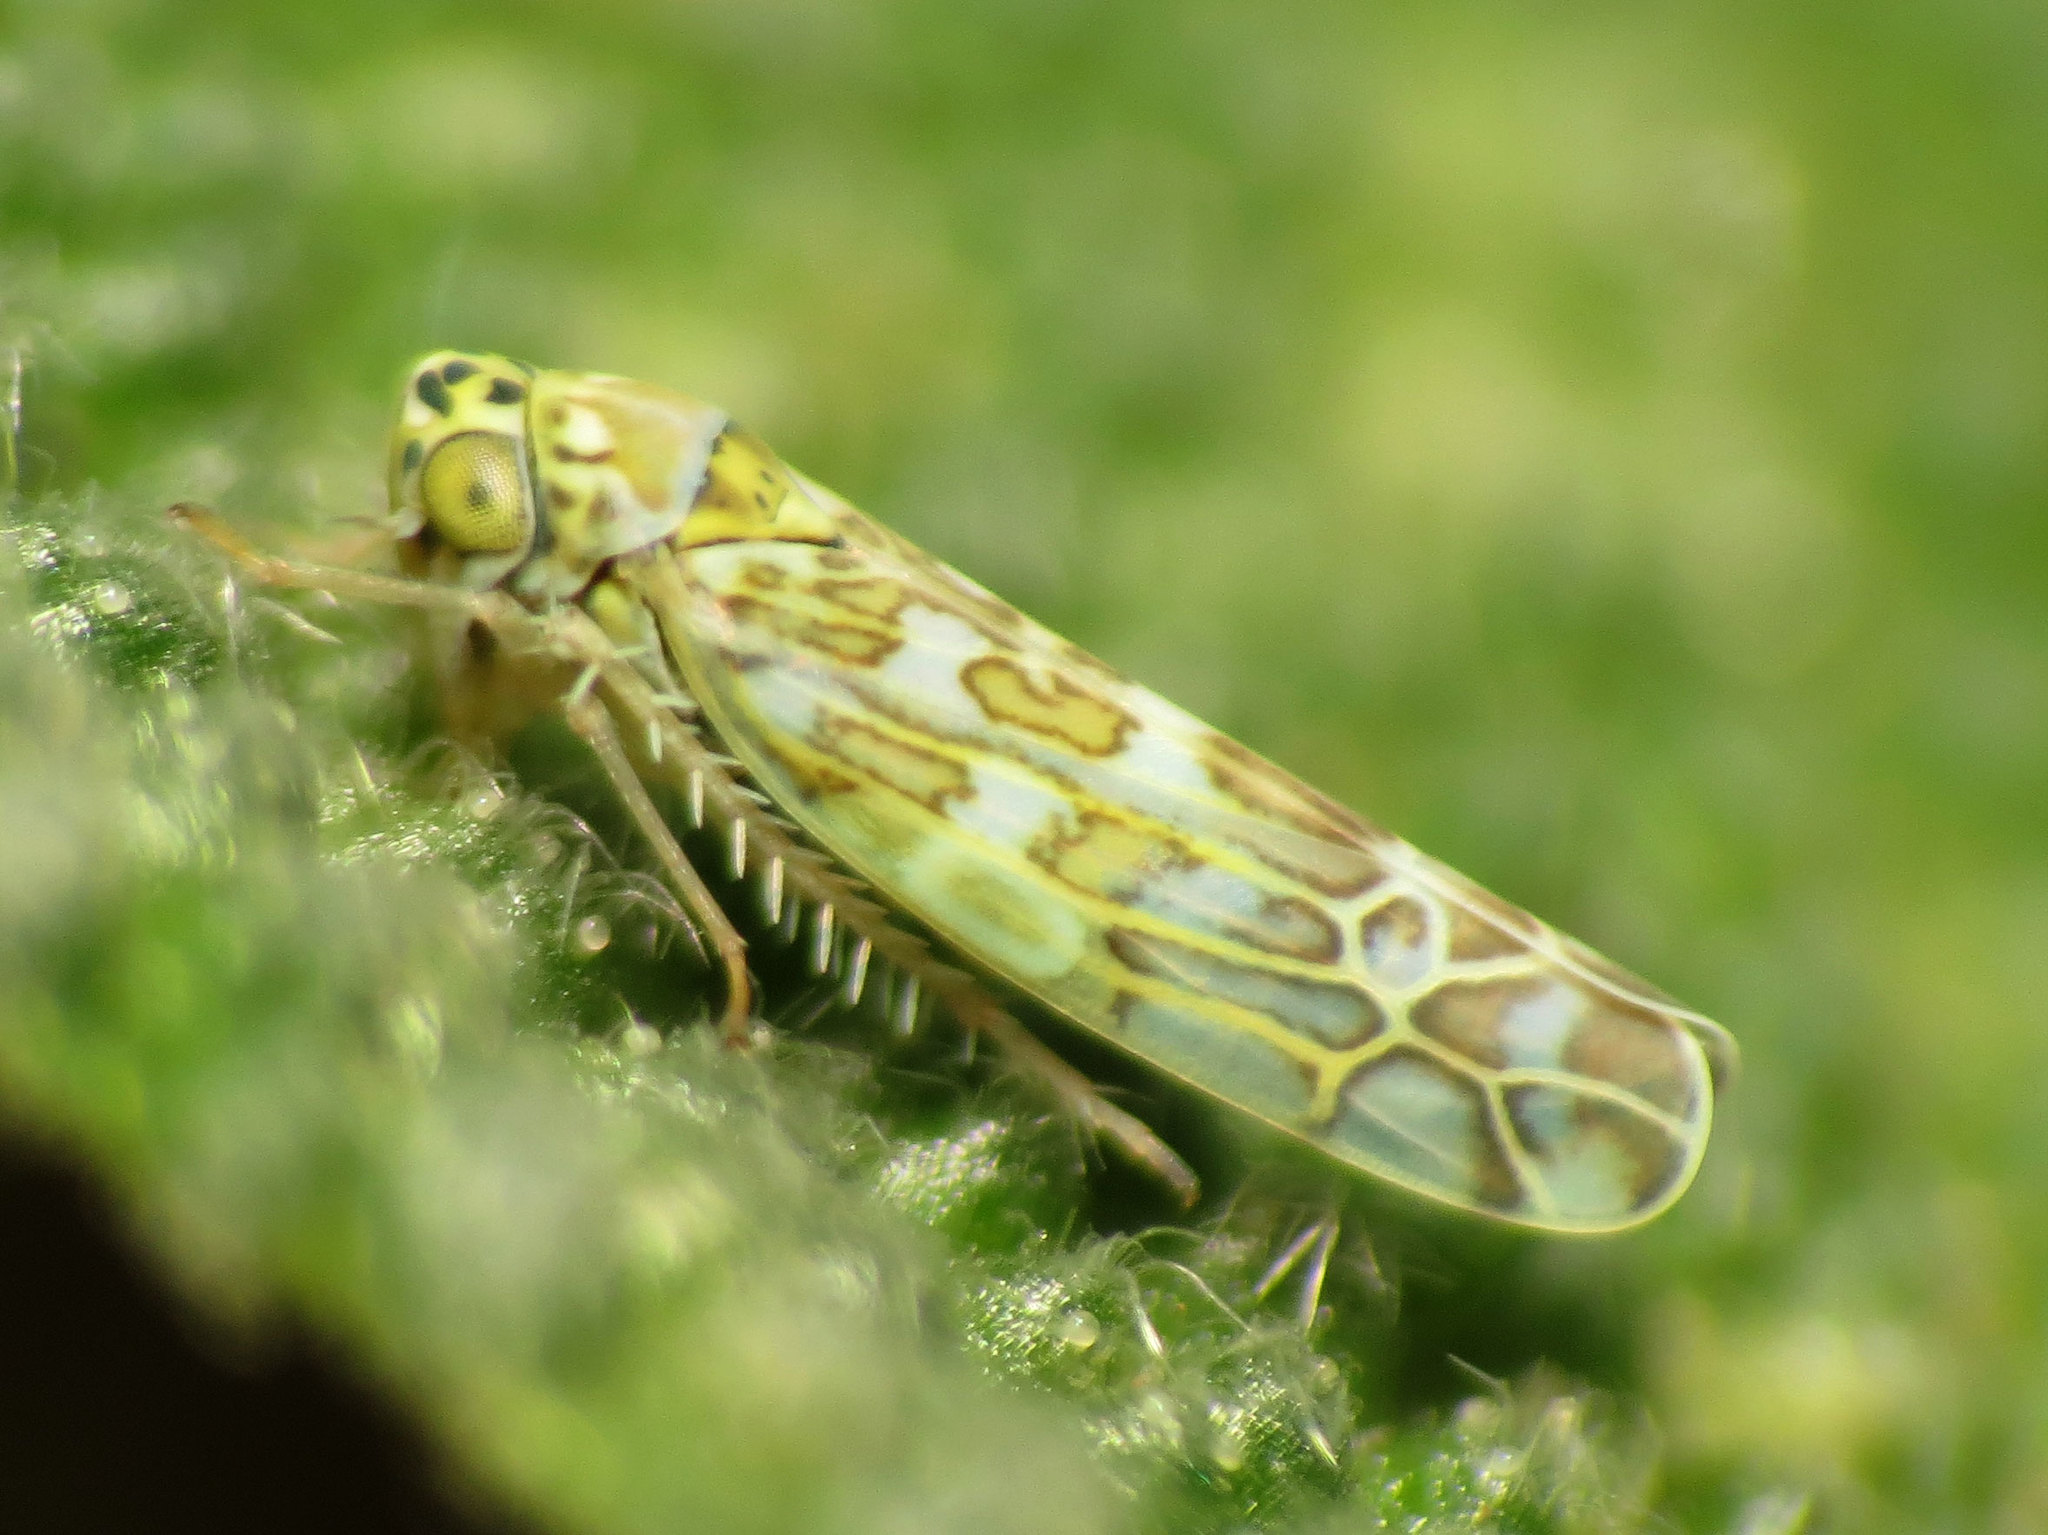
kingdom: Animalia
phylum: Arthropoda
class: Insecta
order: Hemiptera
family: Cicadellidae
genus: Eupteryx
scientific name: Eupteryx decemnotata
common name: Ligurian leafhopper
